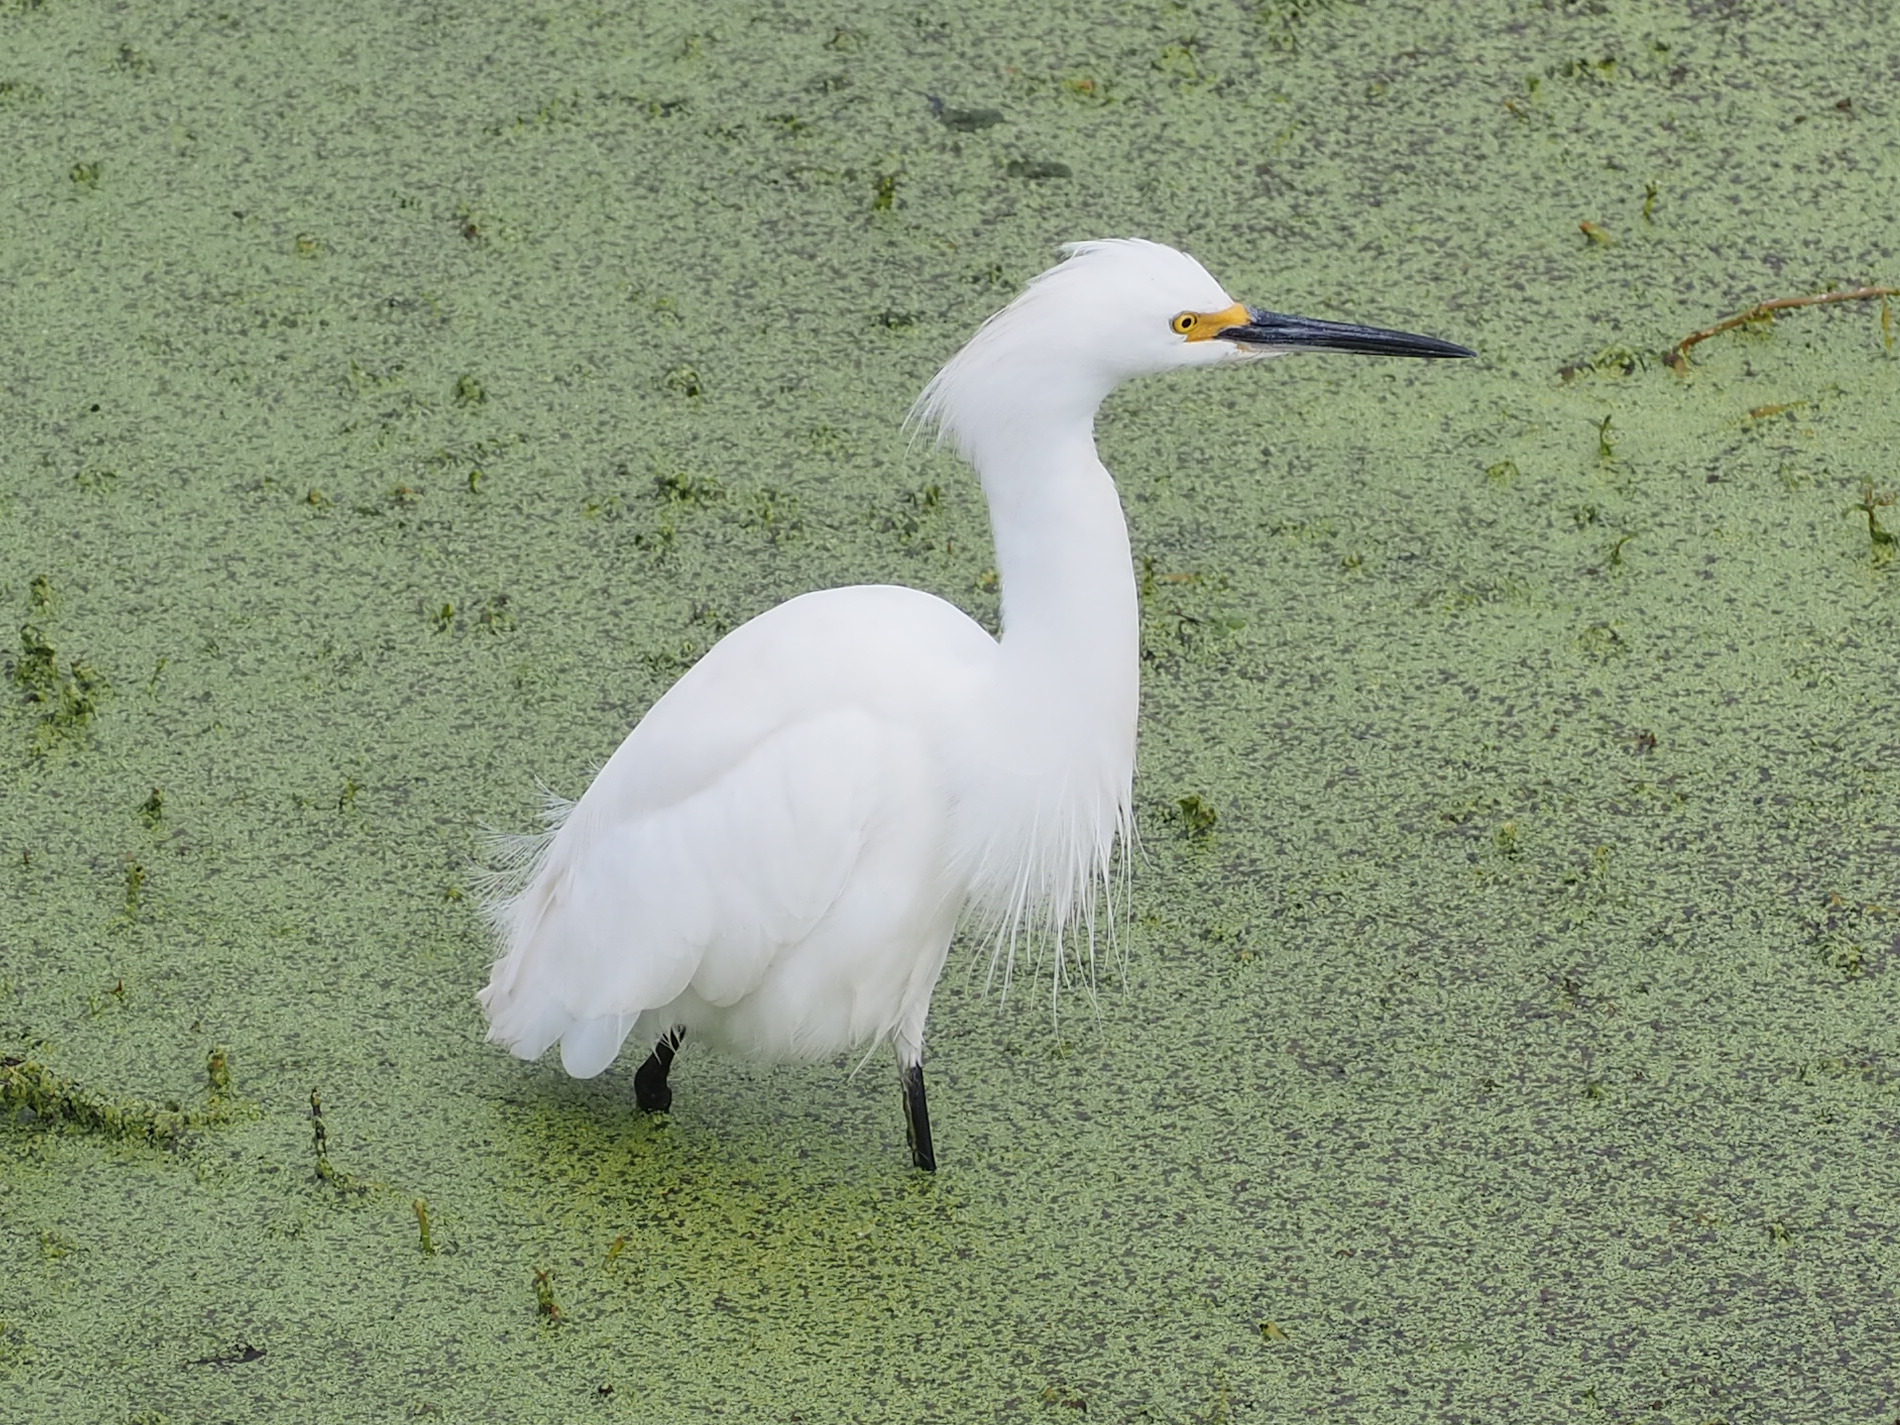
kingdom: Animalia
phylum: Chordata
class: Aves
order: Pelecaniformes
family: Ardeidae
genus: Egretta
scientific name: Egretta thula
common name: Snowy egret
